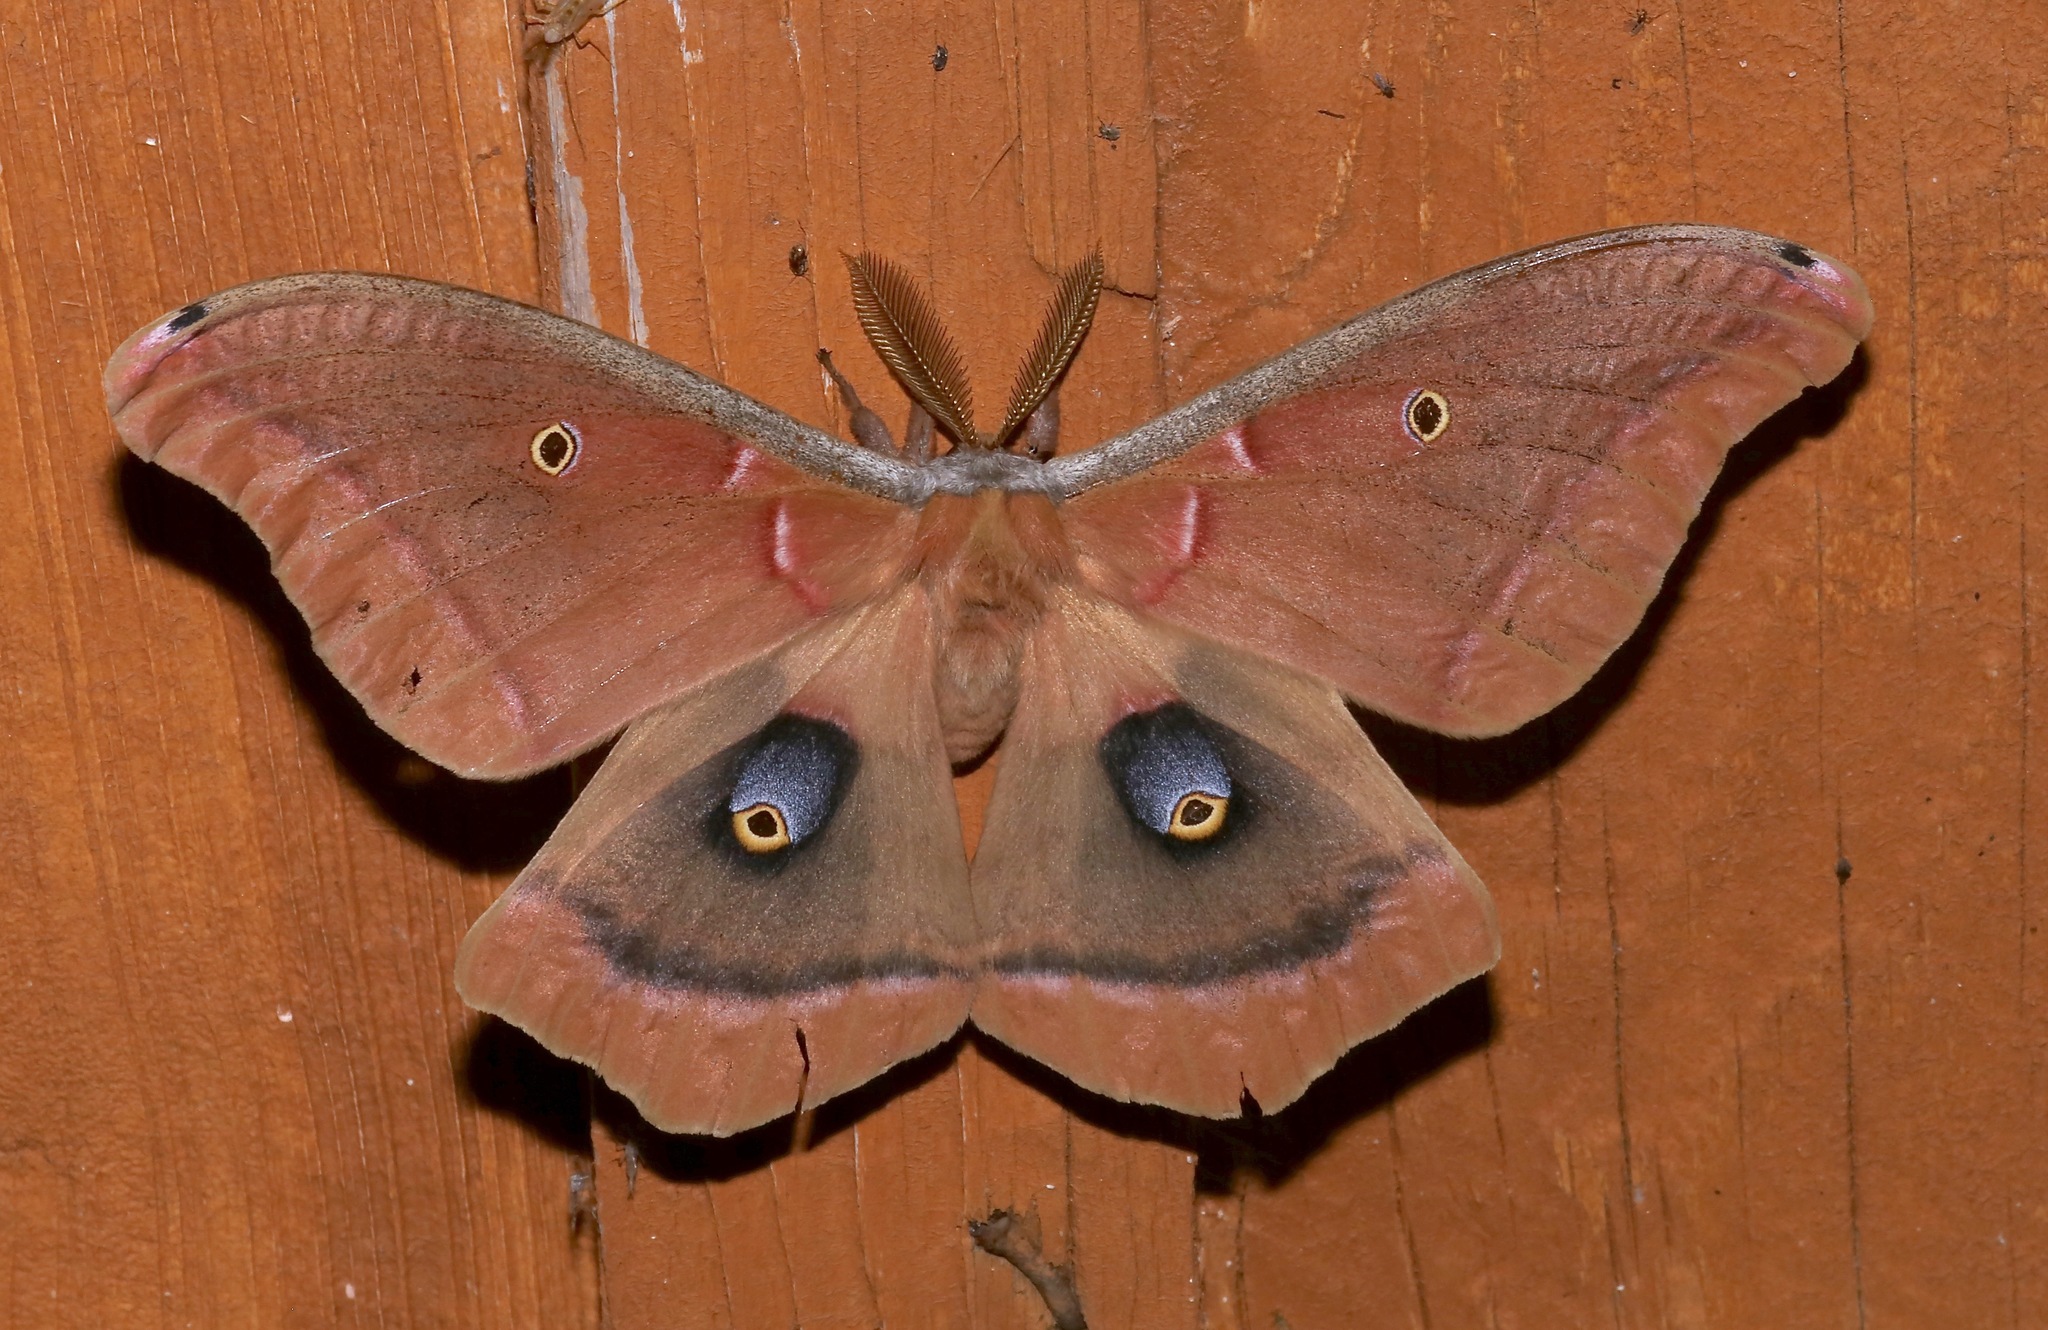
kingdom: Animalia
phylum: Arthropoda
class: Insecta
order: Lepidoptera
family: Saturniidae
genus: Antheraea
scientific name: Antheraea polyphemus
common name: Polyphemus moth
